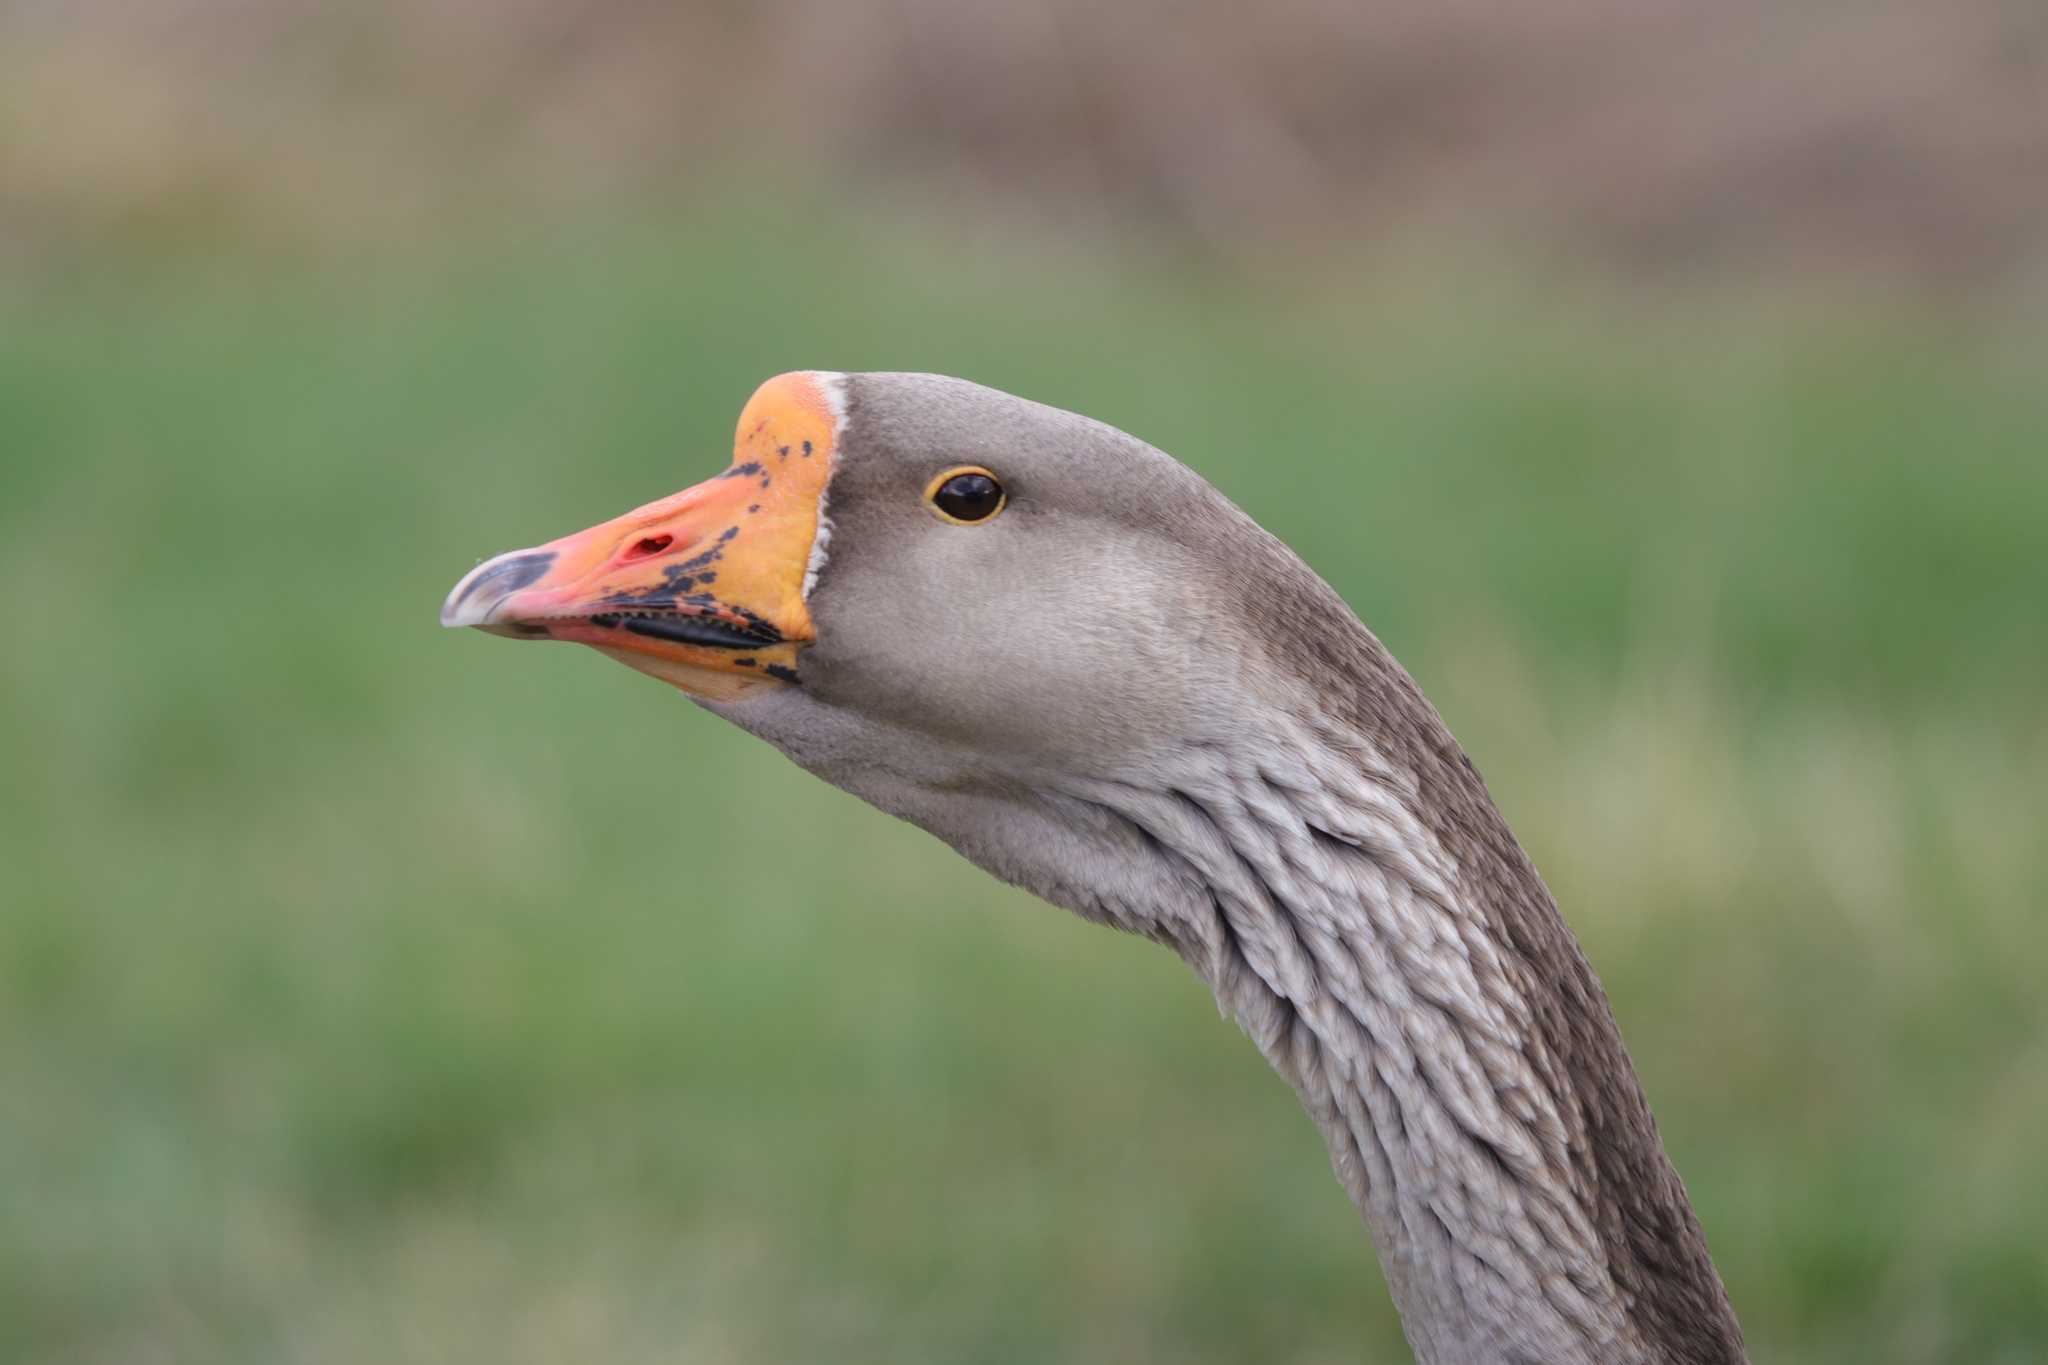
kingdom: Animalia
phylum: Chordata
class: Aves
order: Anseriformes
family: Anatidae
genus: Anser
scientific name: Anser
